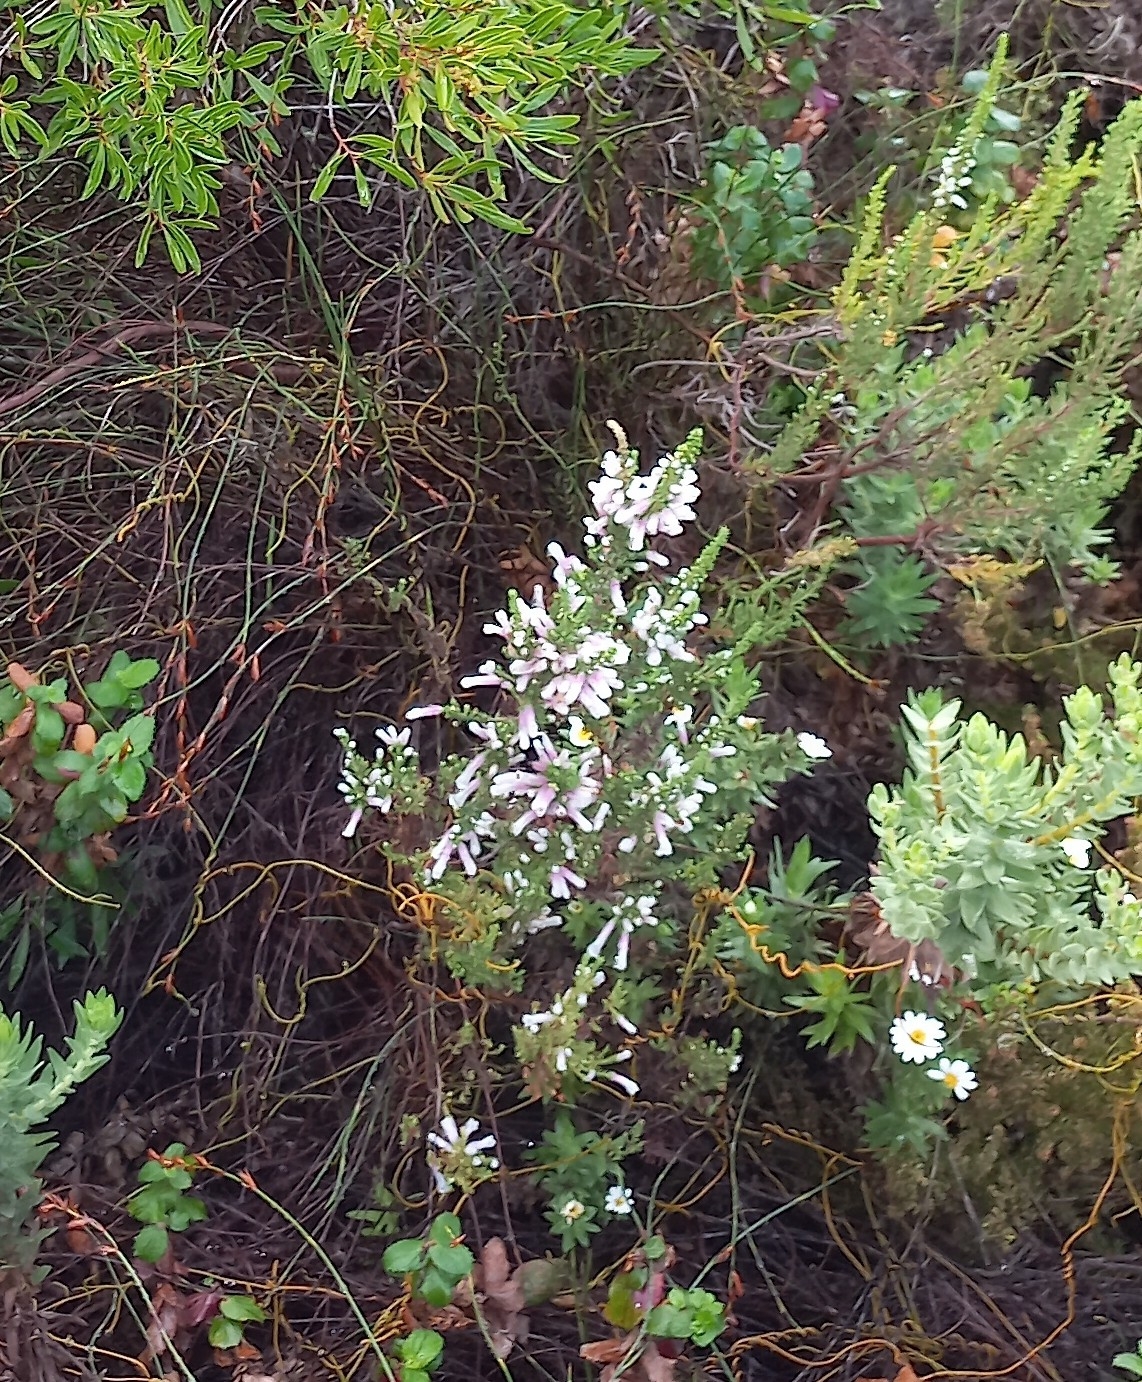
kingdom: Plantae
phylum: Tracheophyta
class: Magnoliopsida
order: Ericales
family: Ericaceae
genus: Erica
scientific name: Erica perspicua
